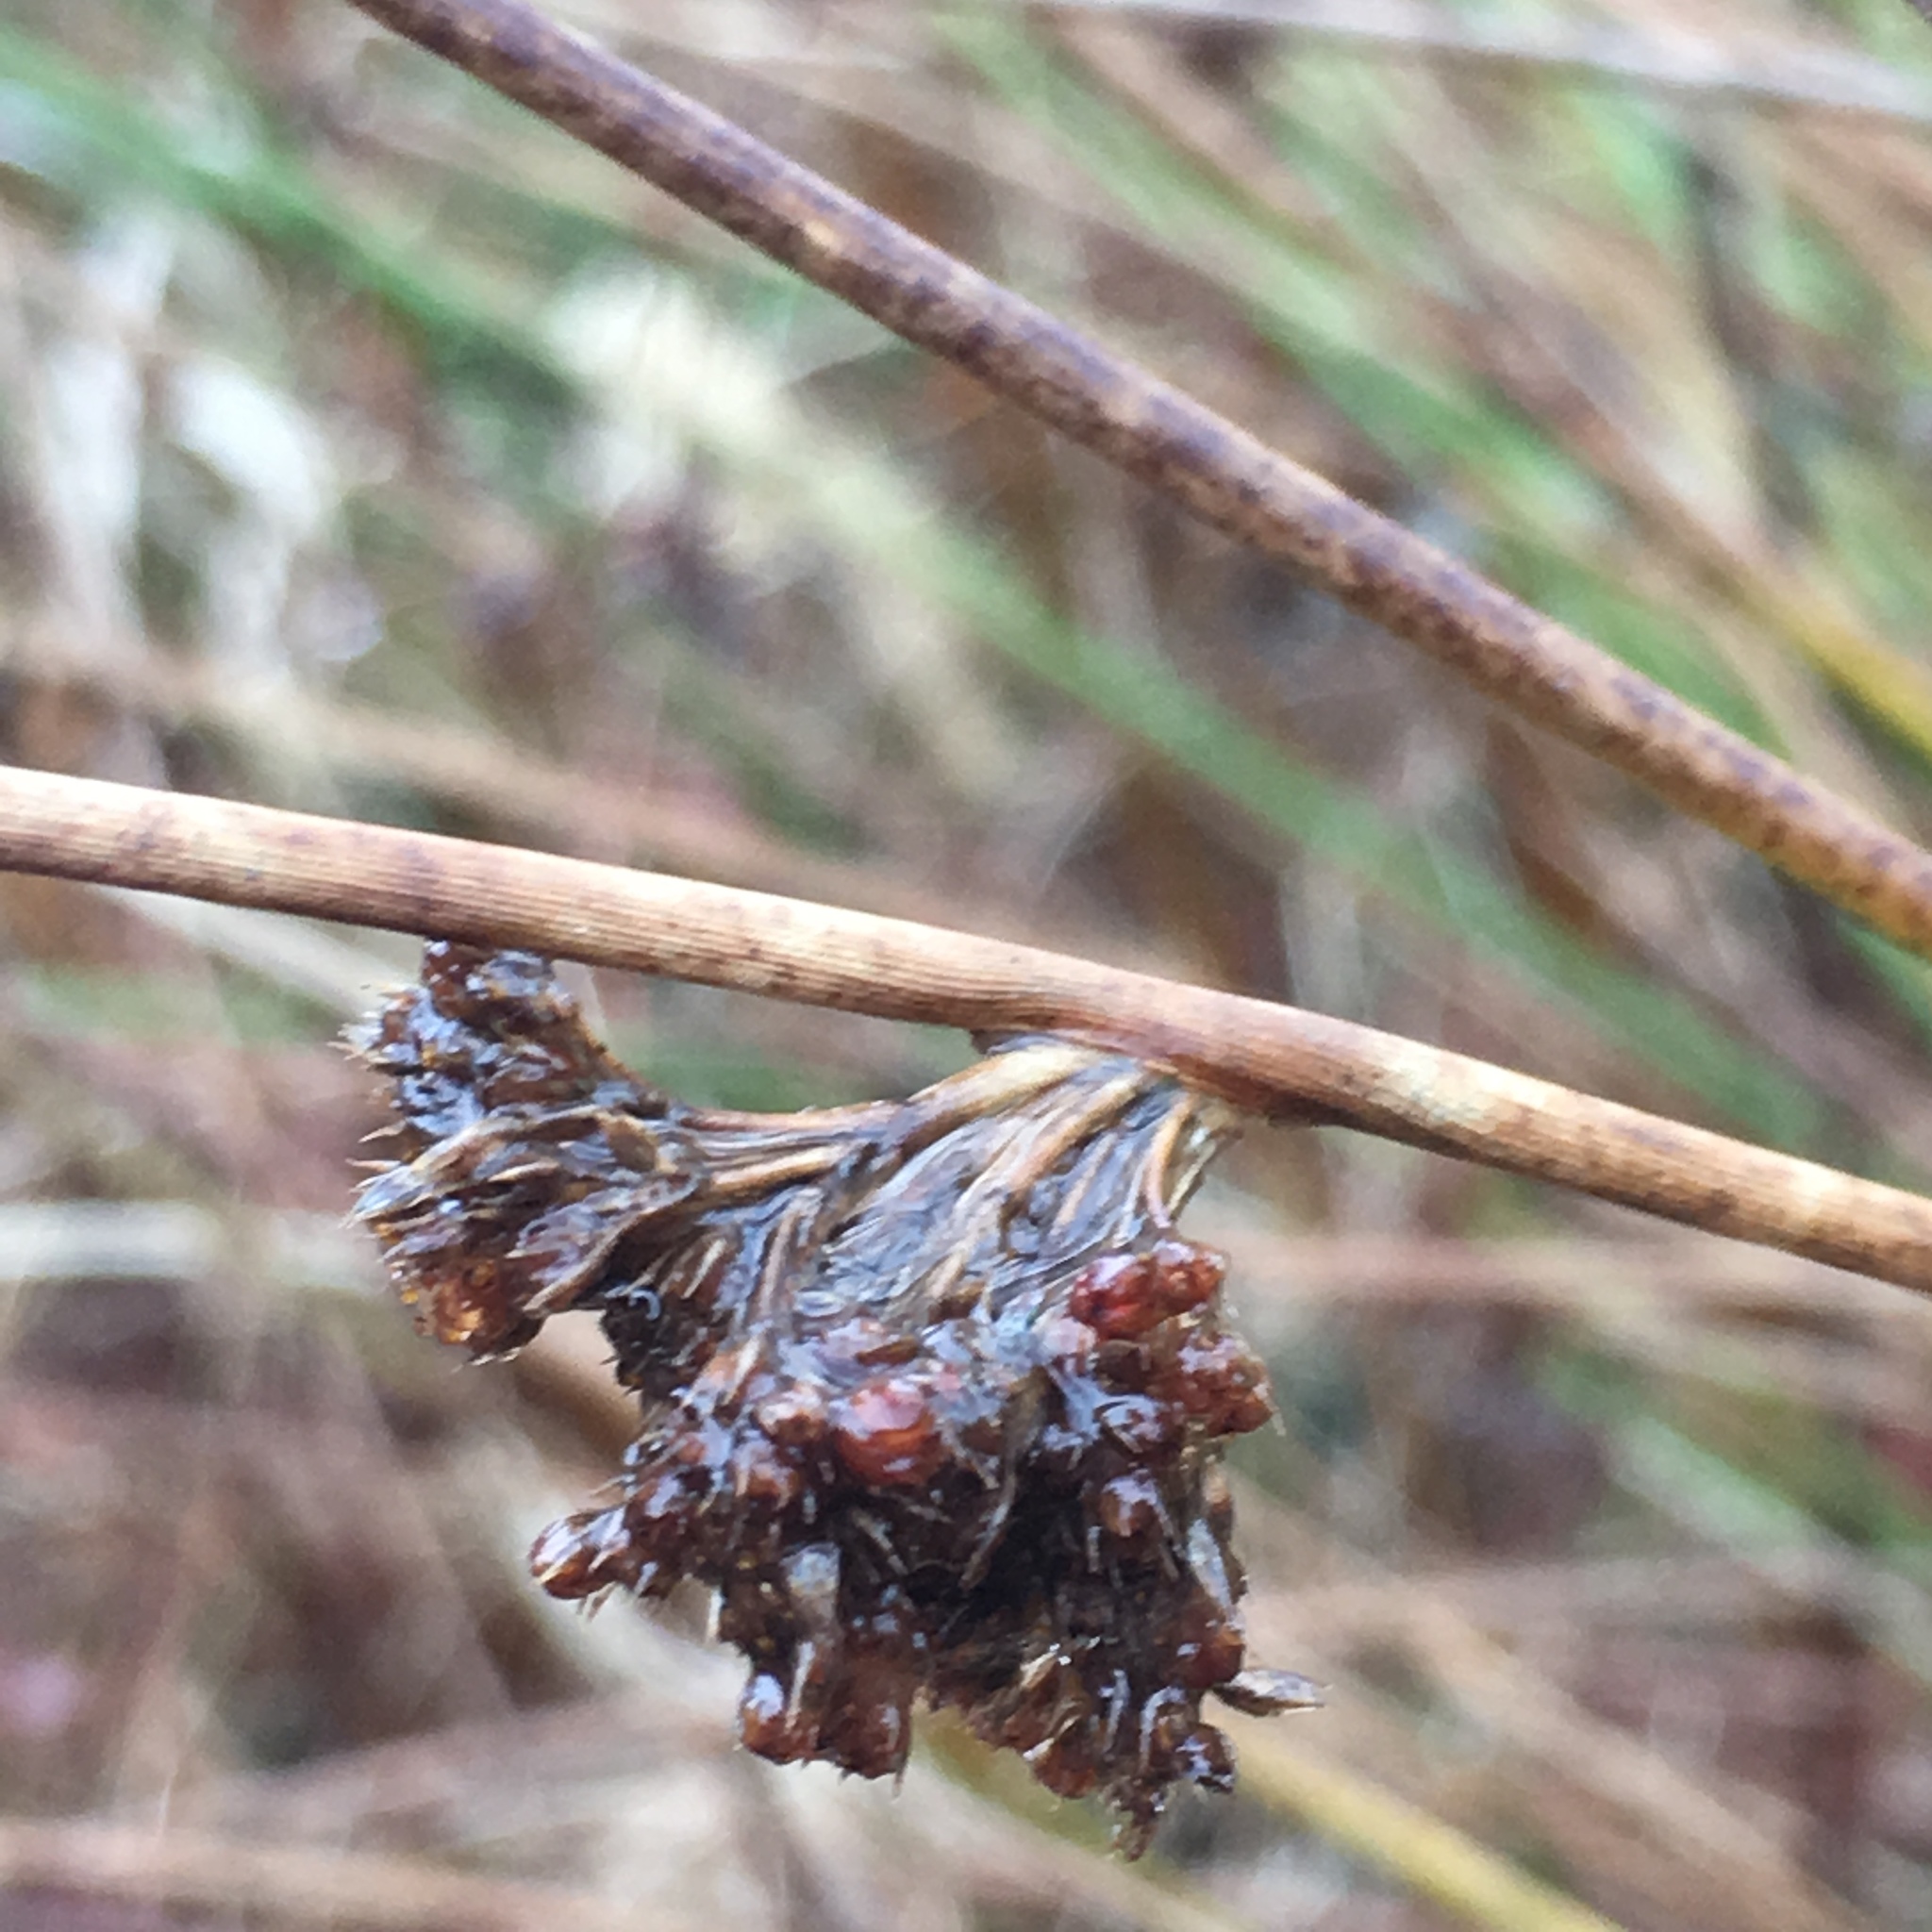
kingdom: Plantae
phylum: Tracheophyta
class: Liliopsida
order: Poales
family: Juncaceae
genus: Juncus
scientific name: Juncus effusus
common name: Soft rush
